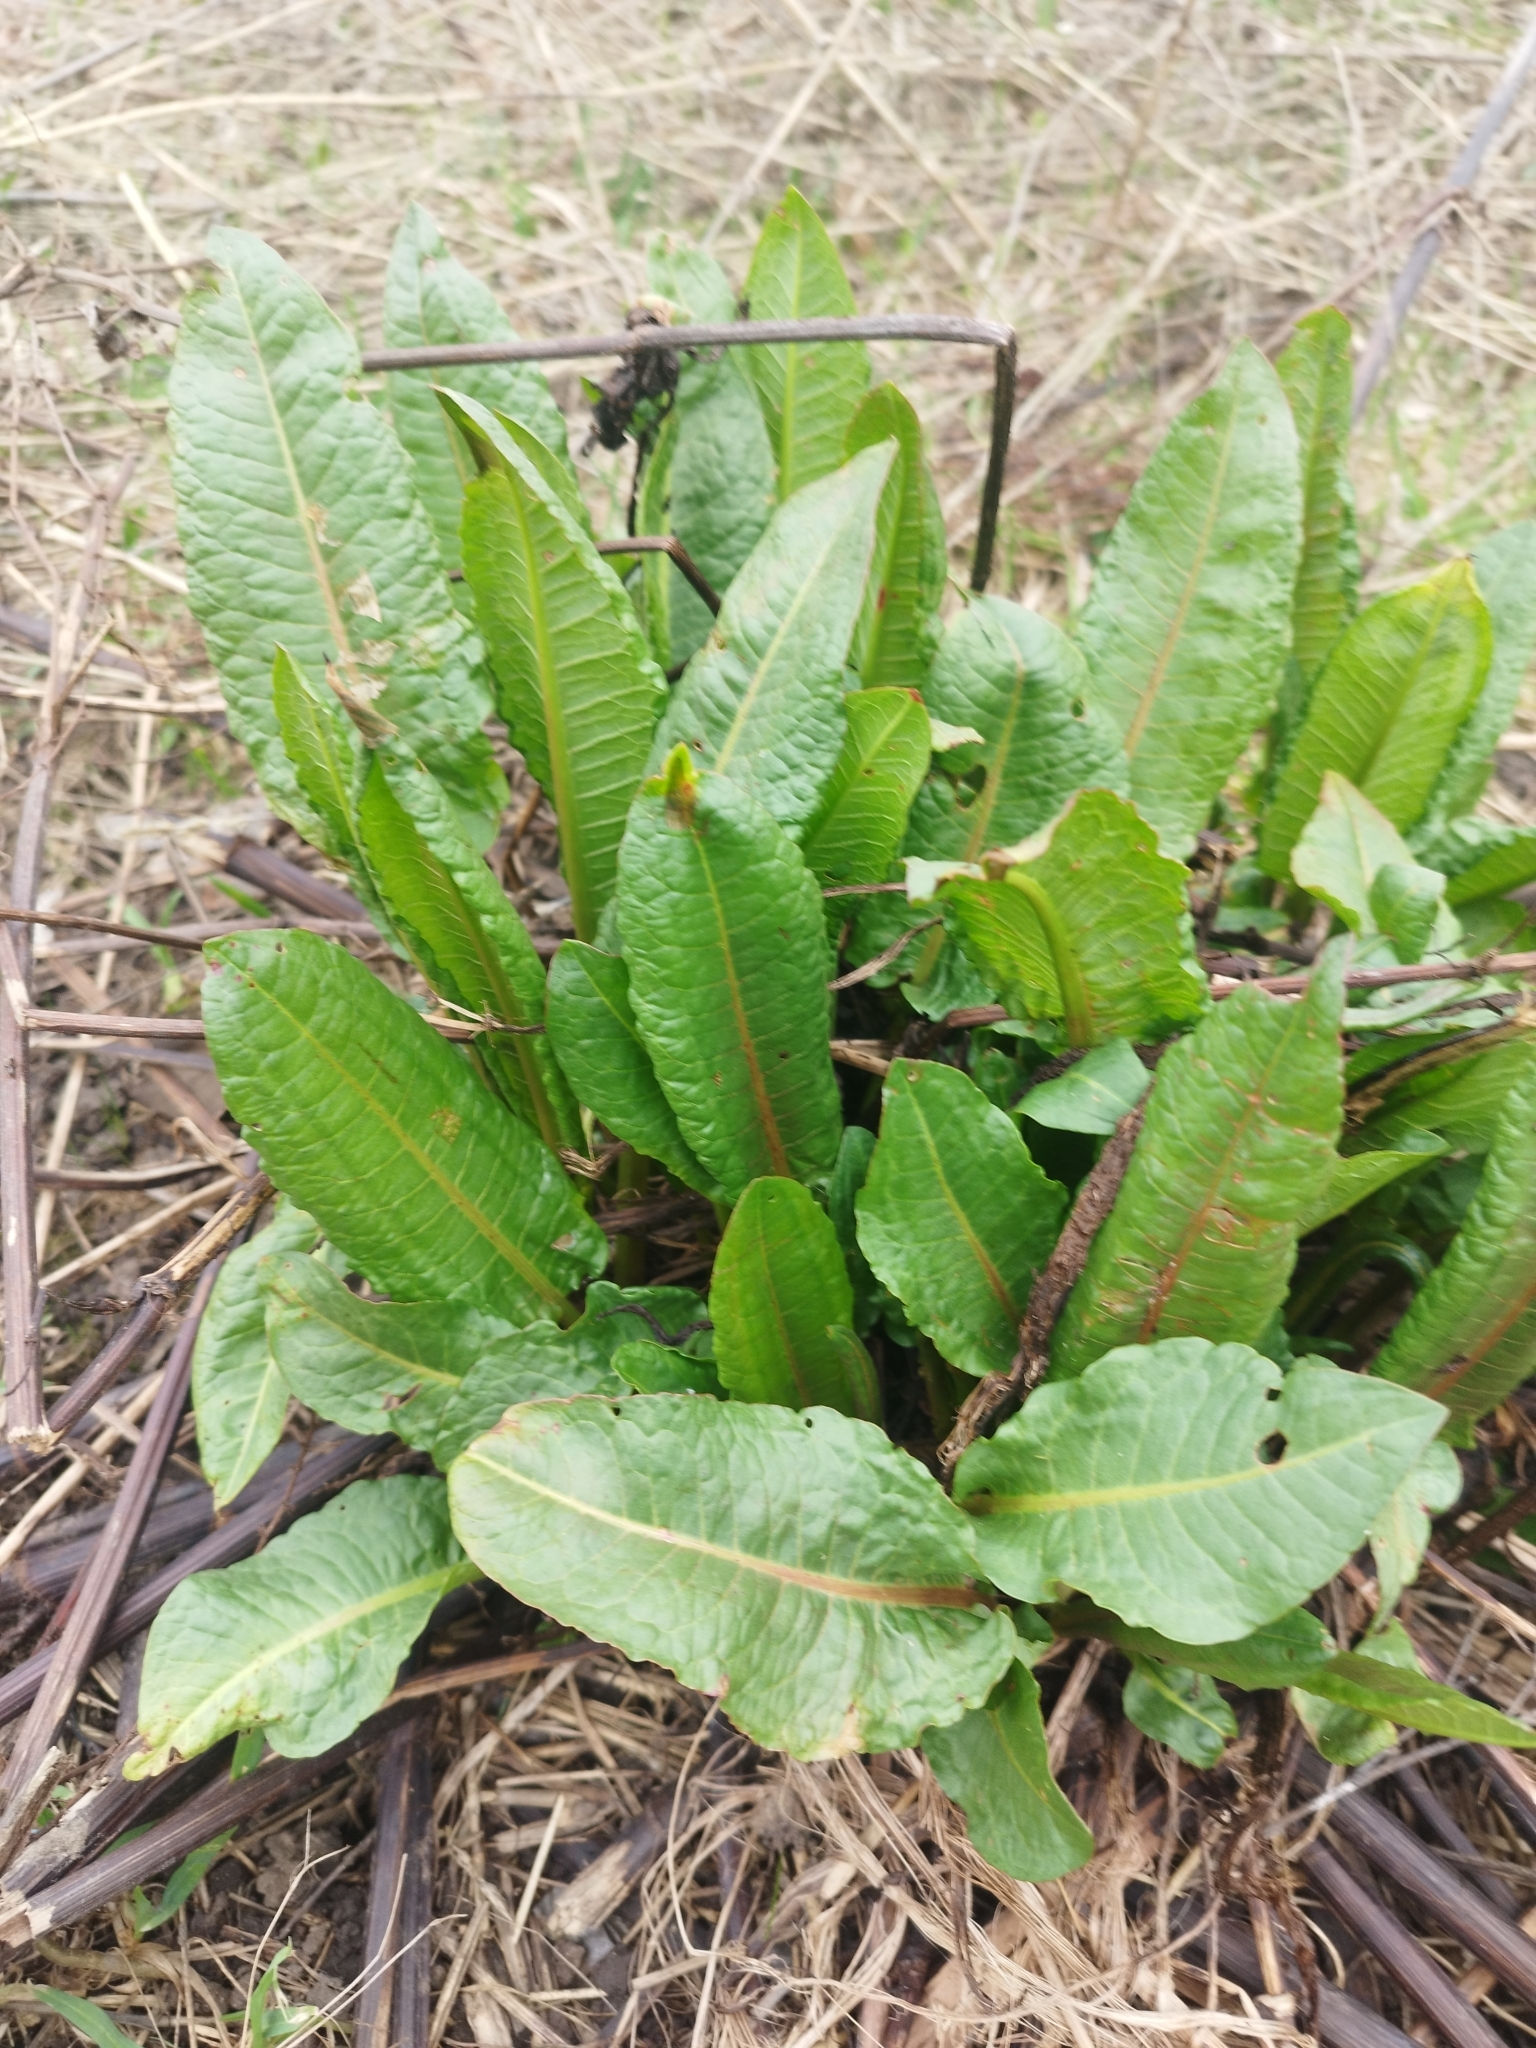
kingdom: Plantae
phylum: Tracheophyta
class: Magnoliopsida
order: Caryophyllales
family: Polygonaceae
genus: Rumex
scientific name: Rumex obtusifolius
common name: Bitter dock
